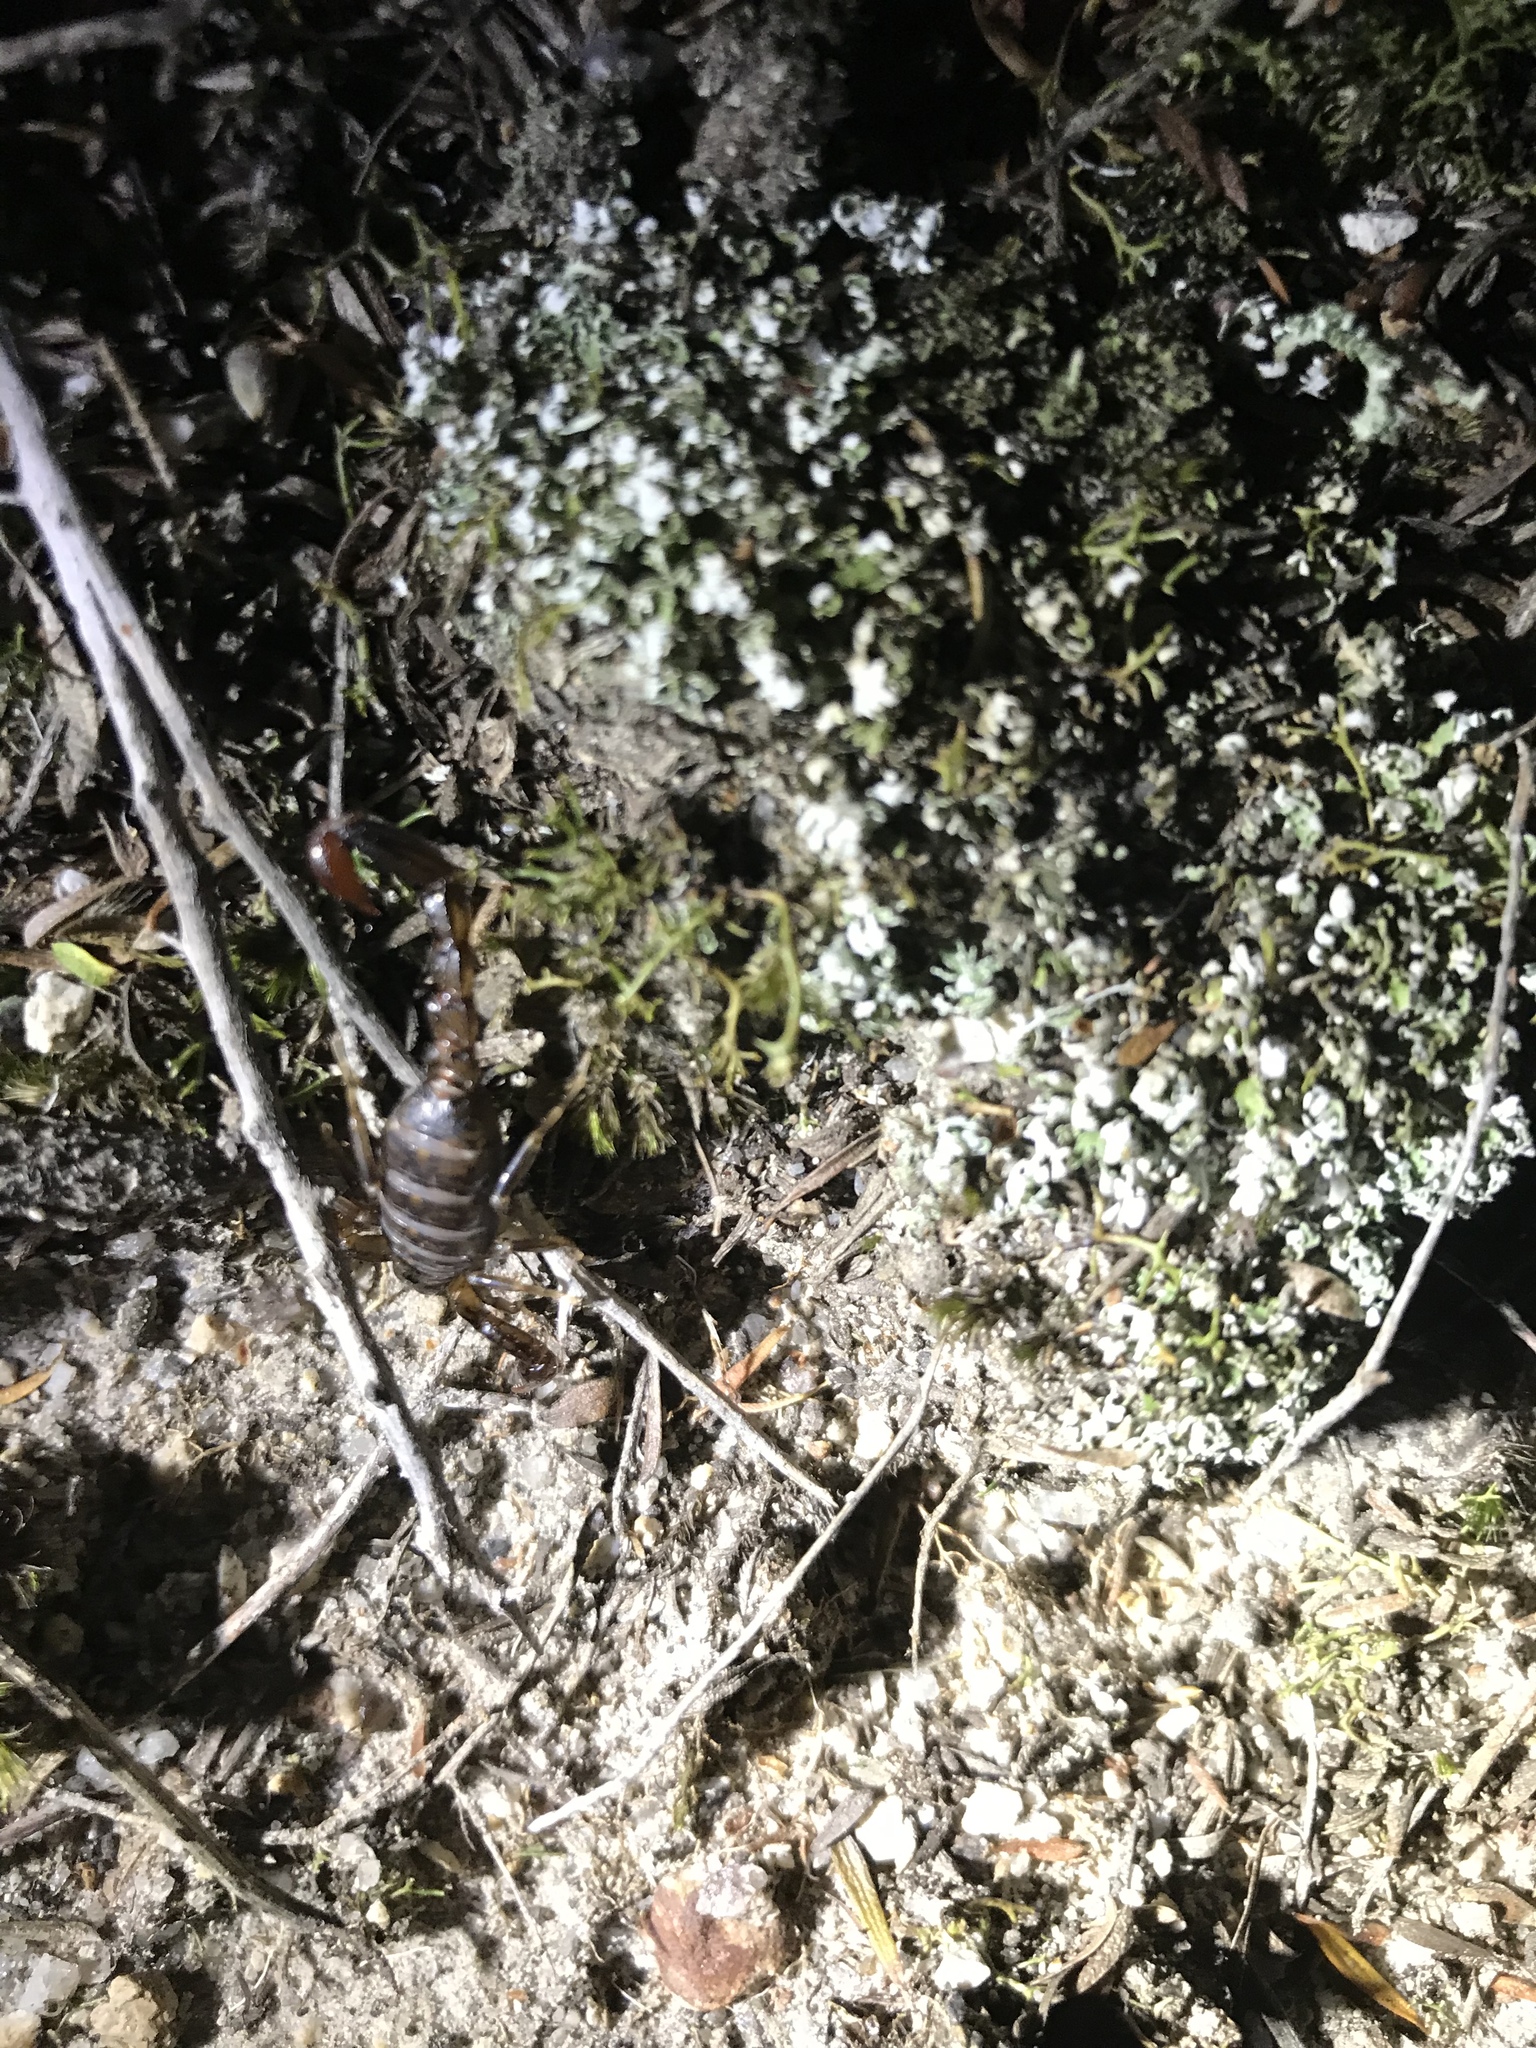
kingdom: Animalia
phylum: Arthropoda
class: Arachnida
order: Scorpiones
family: Bothriuridae
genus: Cercophonius
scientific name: Cercophonius squama
